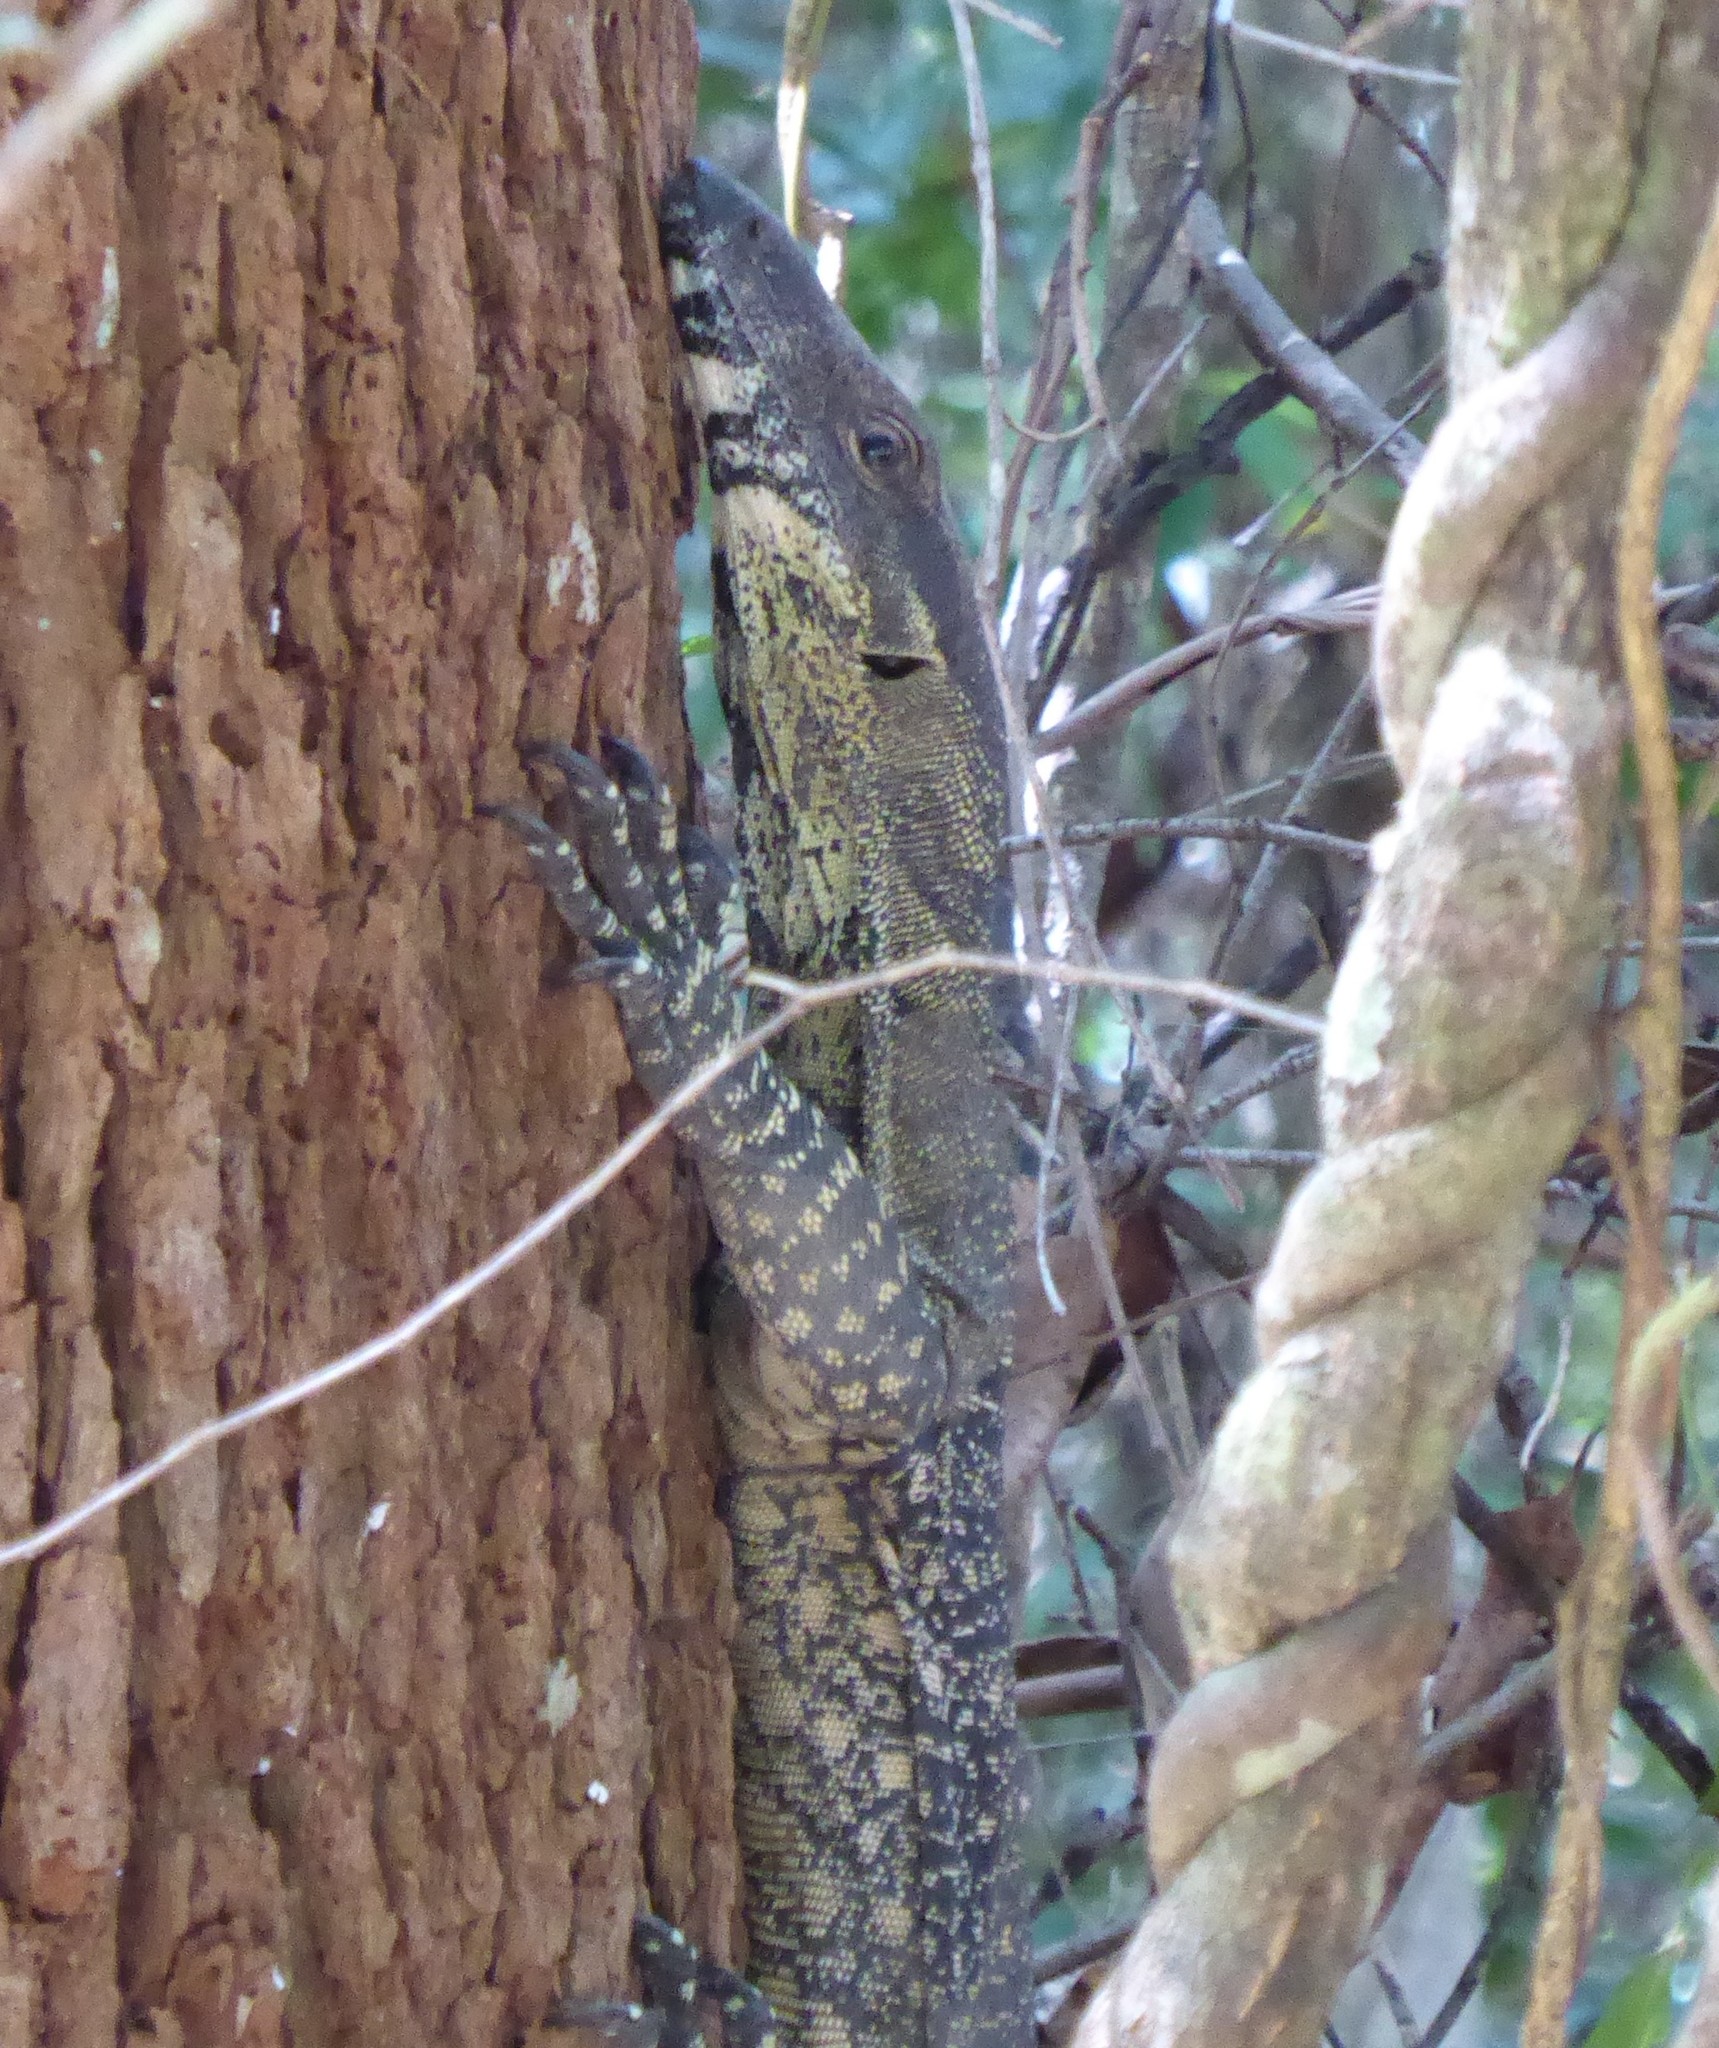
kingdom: Animalia
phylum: Chordata
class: Squamata
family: Varanidae
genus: Varanus
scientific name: Varanus varius
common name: Lace monitor
